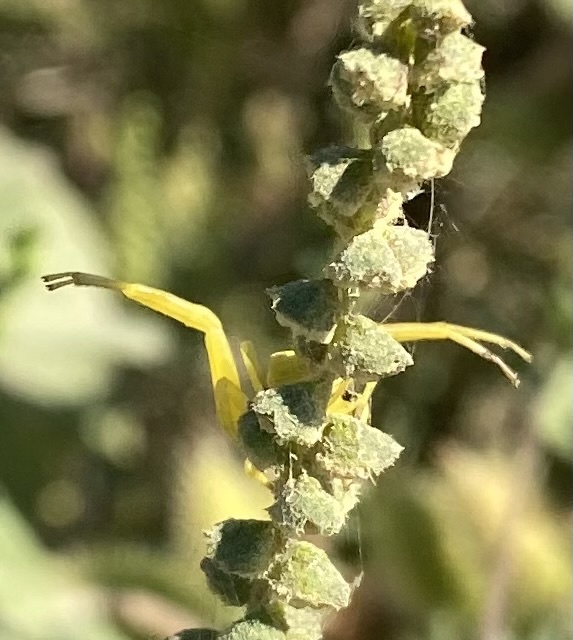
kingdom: Animalia
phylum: Arthropoda
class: Arachnida
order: Araneae
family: Thomisidae
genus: Misumena
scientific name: Misumena vatia
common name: Goldenrod crab spider
